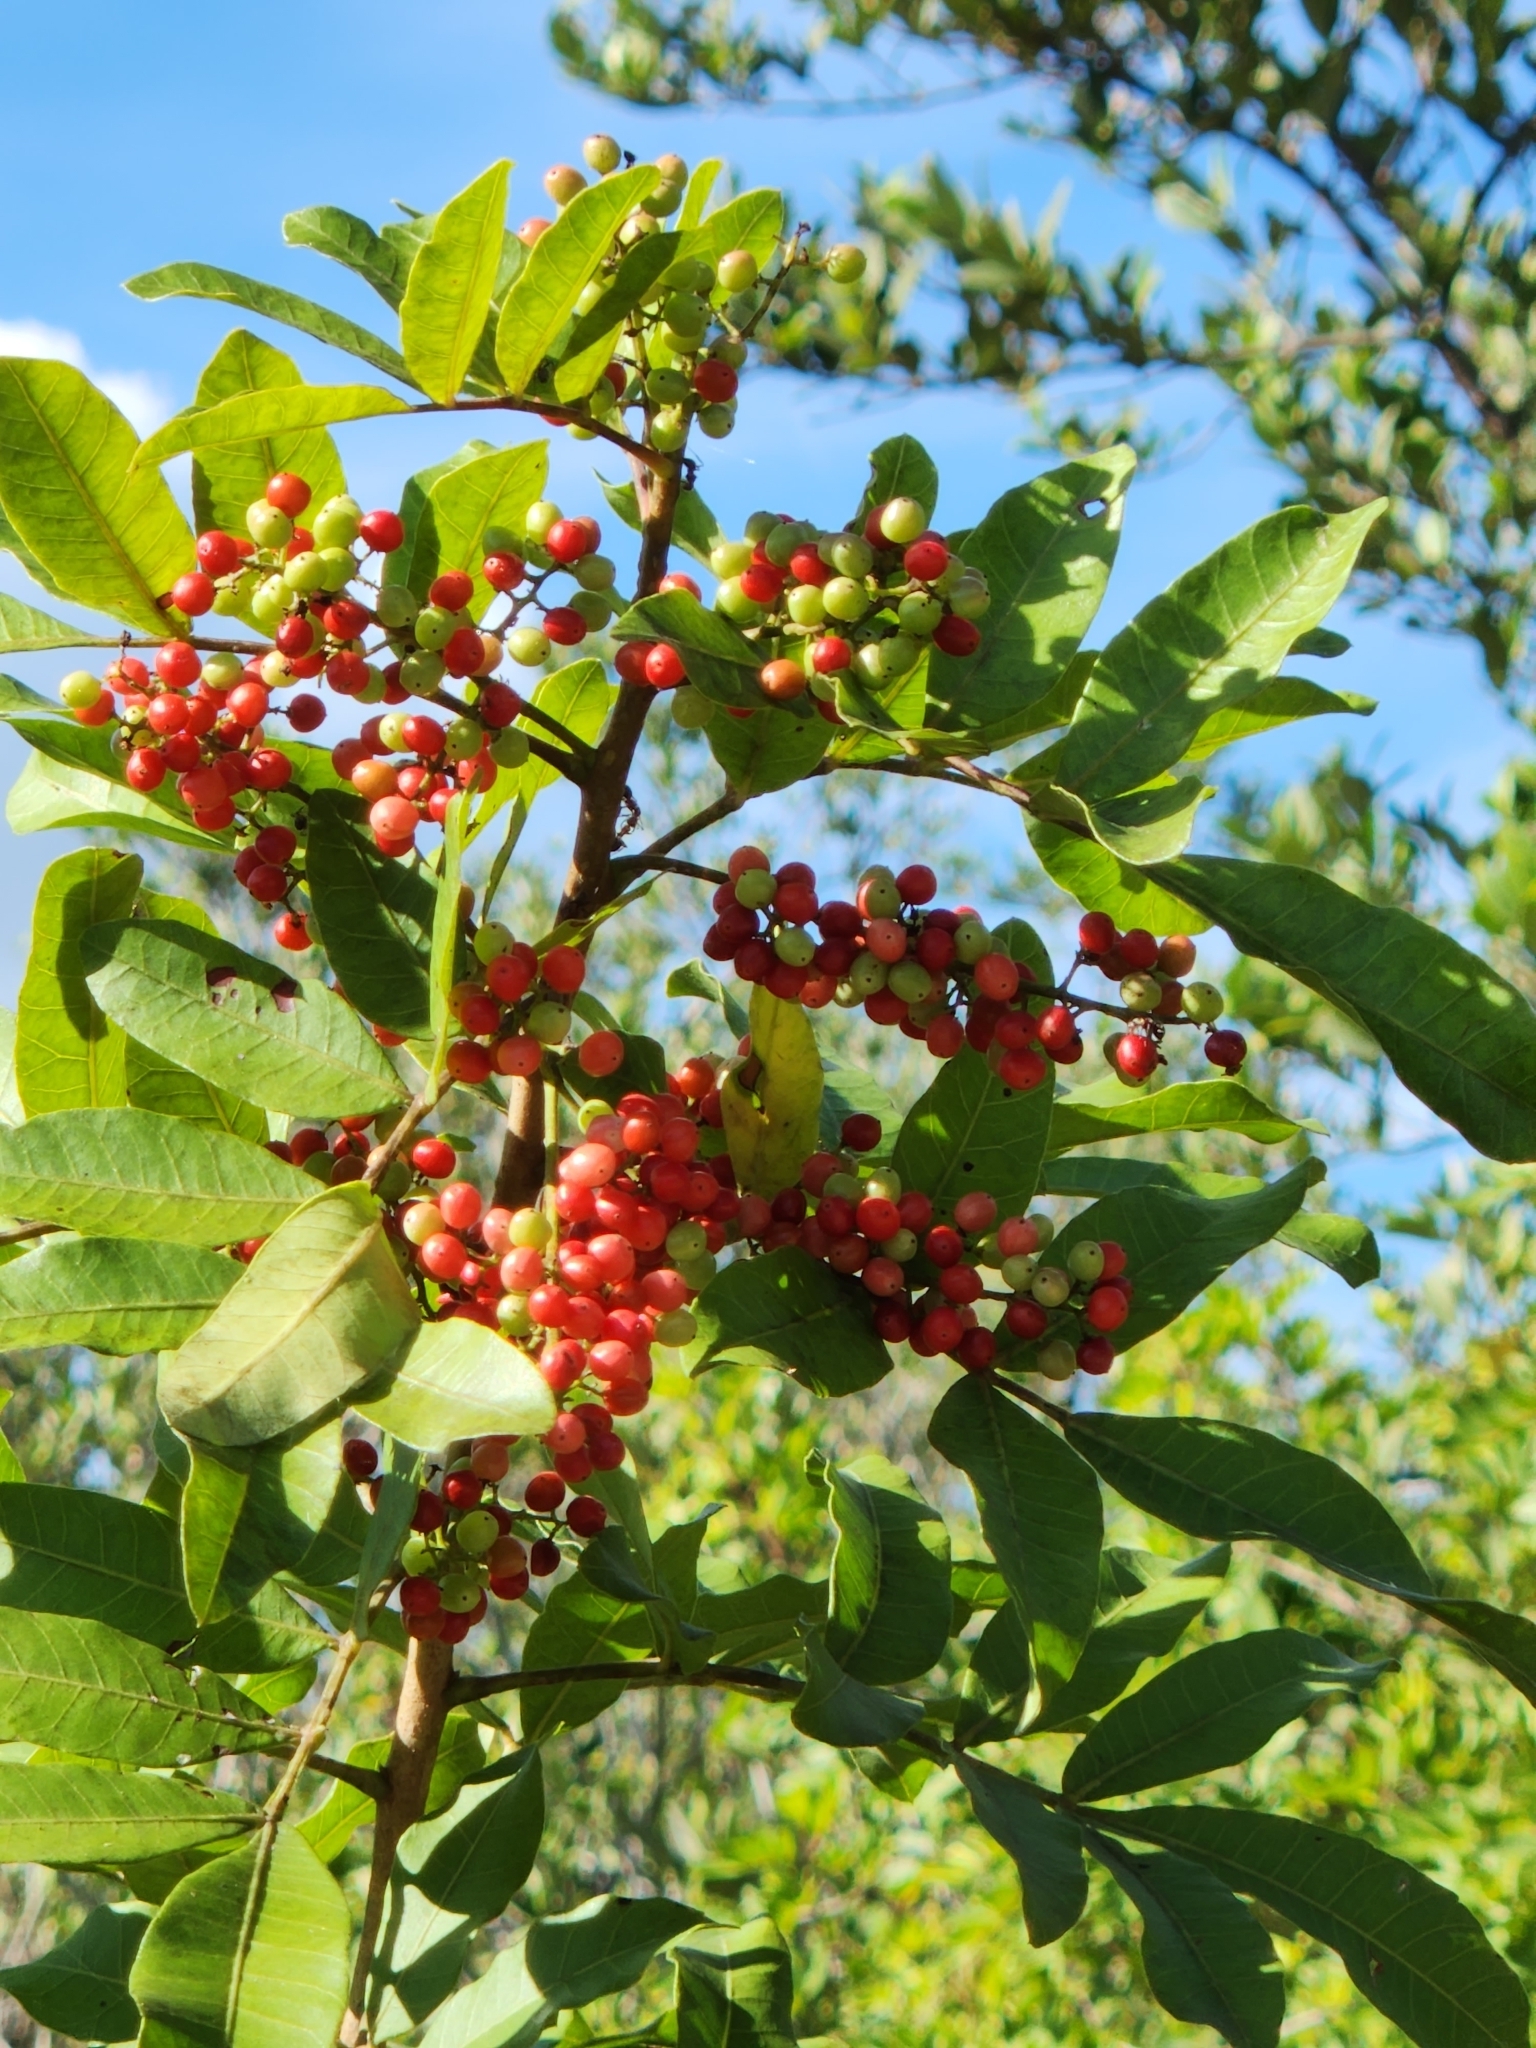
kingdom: Plantae
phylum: Tracheophyta
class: Magnoliopsida
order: Sapindales
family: Anacardiaceae
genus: Schinus
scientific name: Schinus terebinthifolia
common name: Brazilian peppertree
